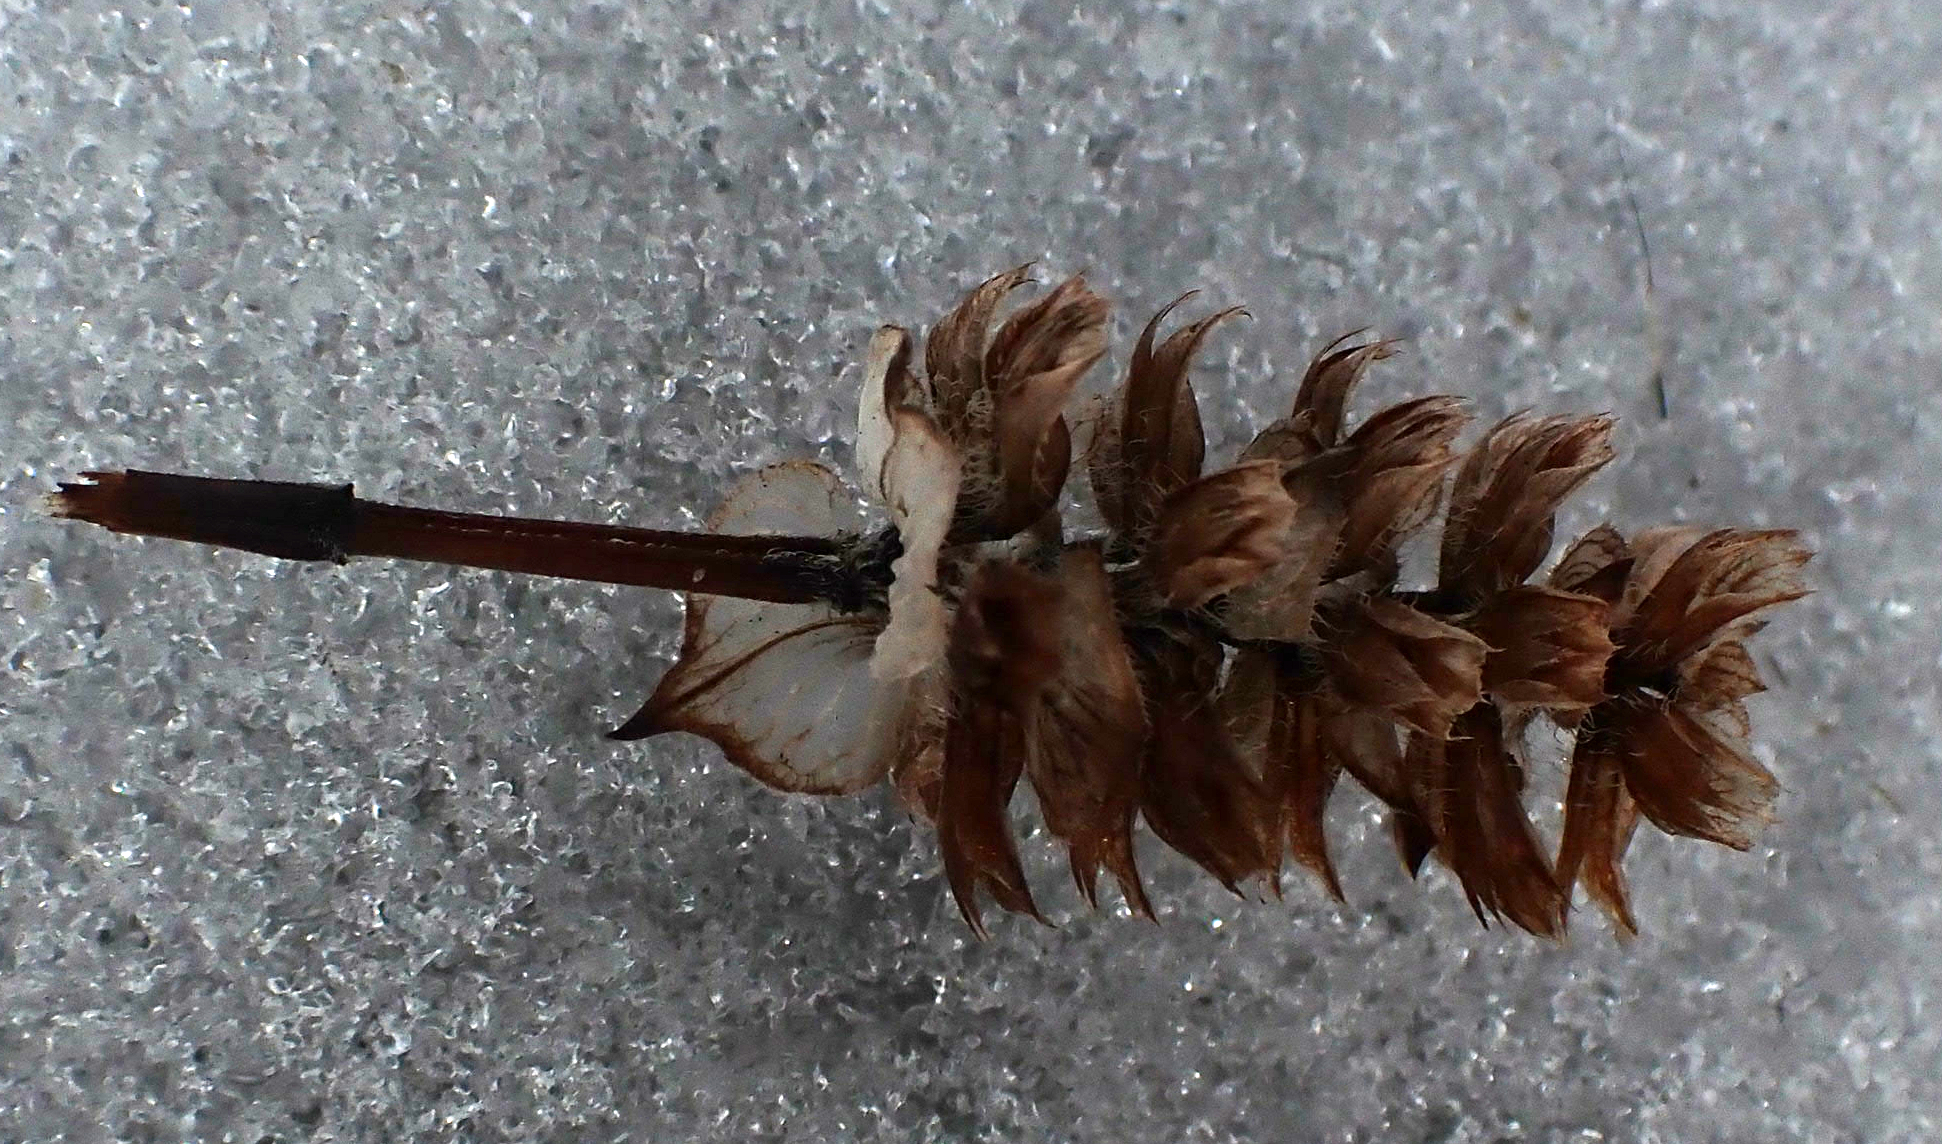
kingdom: Plantae
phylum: Tracheophyta
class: Magnoliopsida
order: Lamiales
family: Lamiaceae
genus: Prunella
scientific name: Prunella vulgaris
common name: Heal-all
